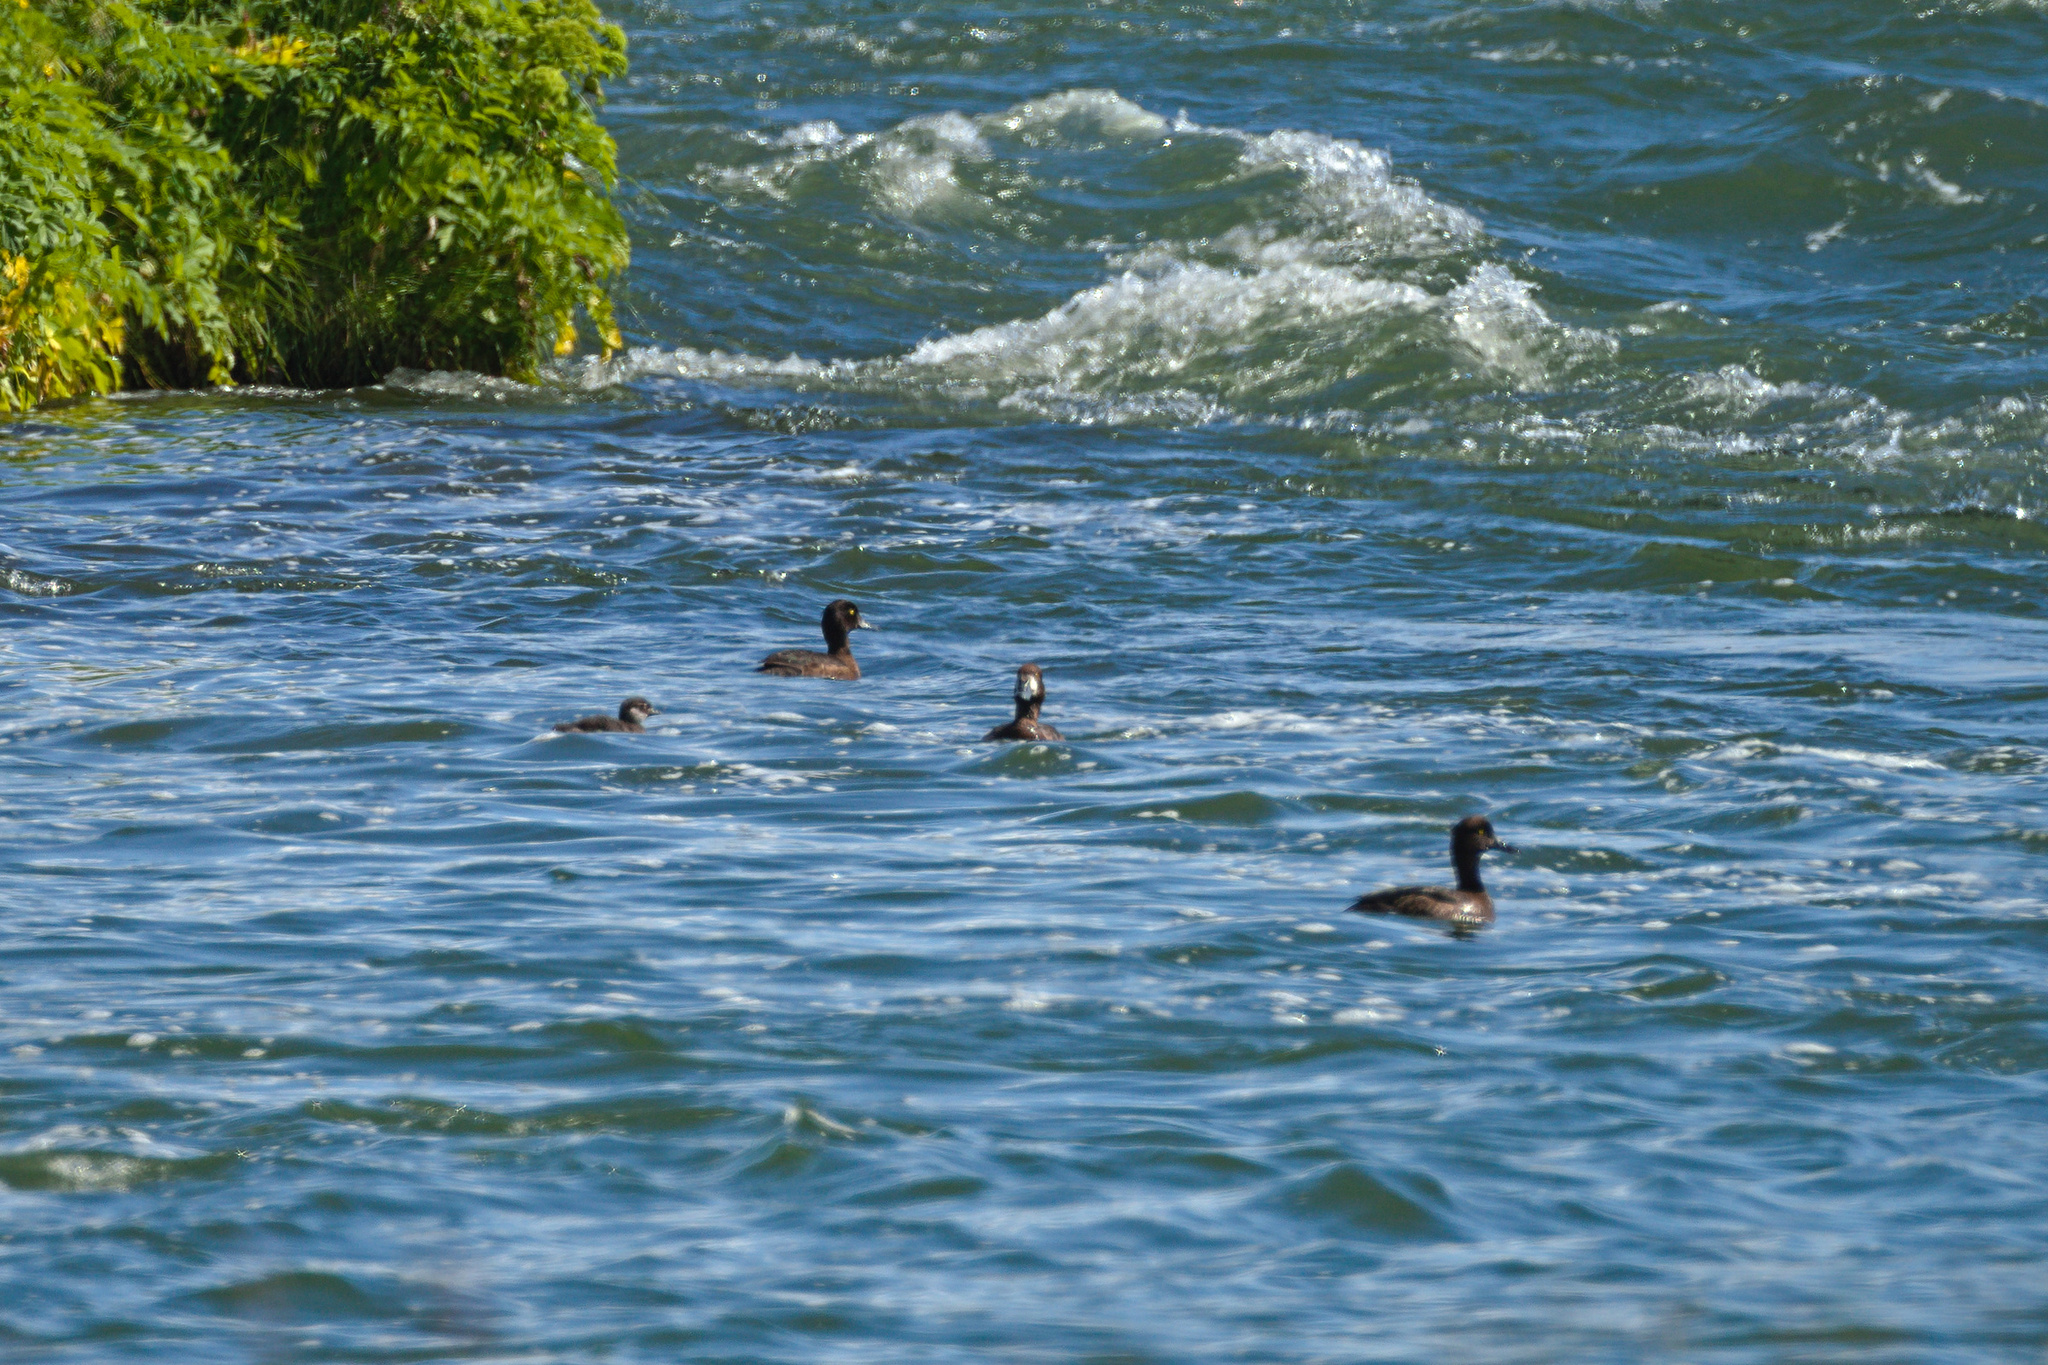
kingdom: Animalia
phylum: Chordata
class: Aves
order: Anseriformes
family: Anatidae
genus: Aythya
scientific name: Aythya fuligula
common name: Tufted duck
